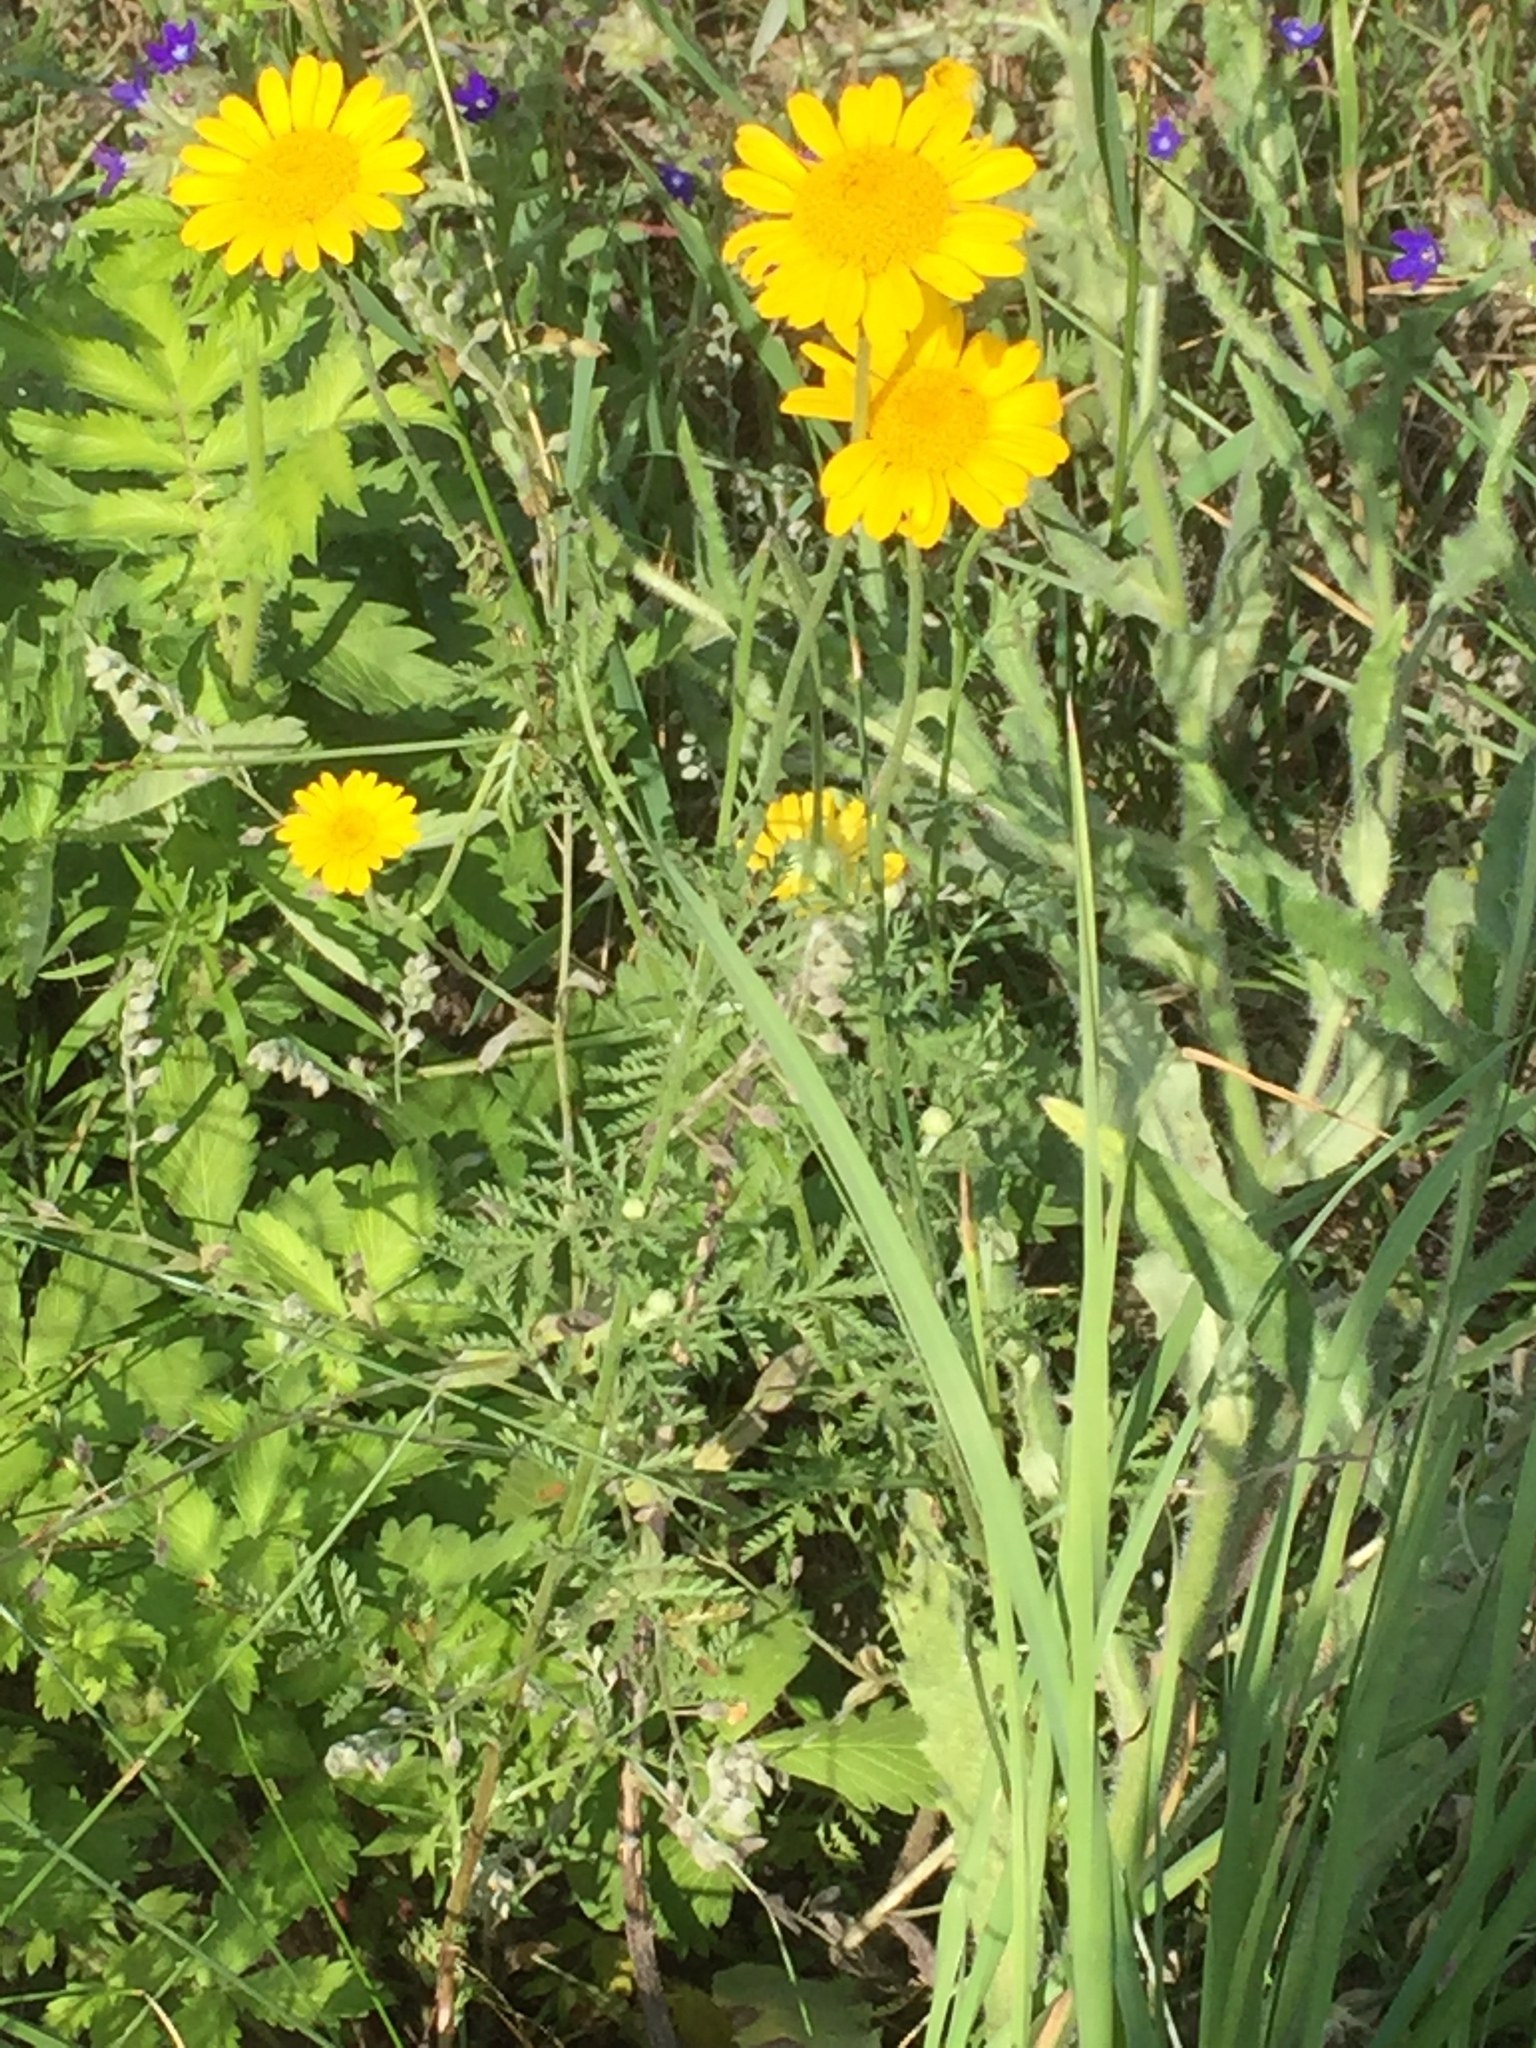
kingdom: Plantae
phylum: Tracheophyta
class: Magnoliopsida
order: Asterales
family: Asteraceae
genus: Cota
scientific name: Cota tinctoria
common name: Golden chamomile
